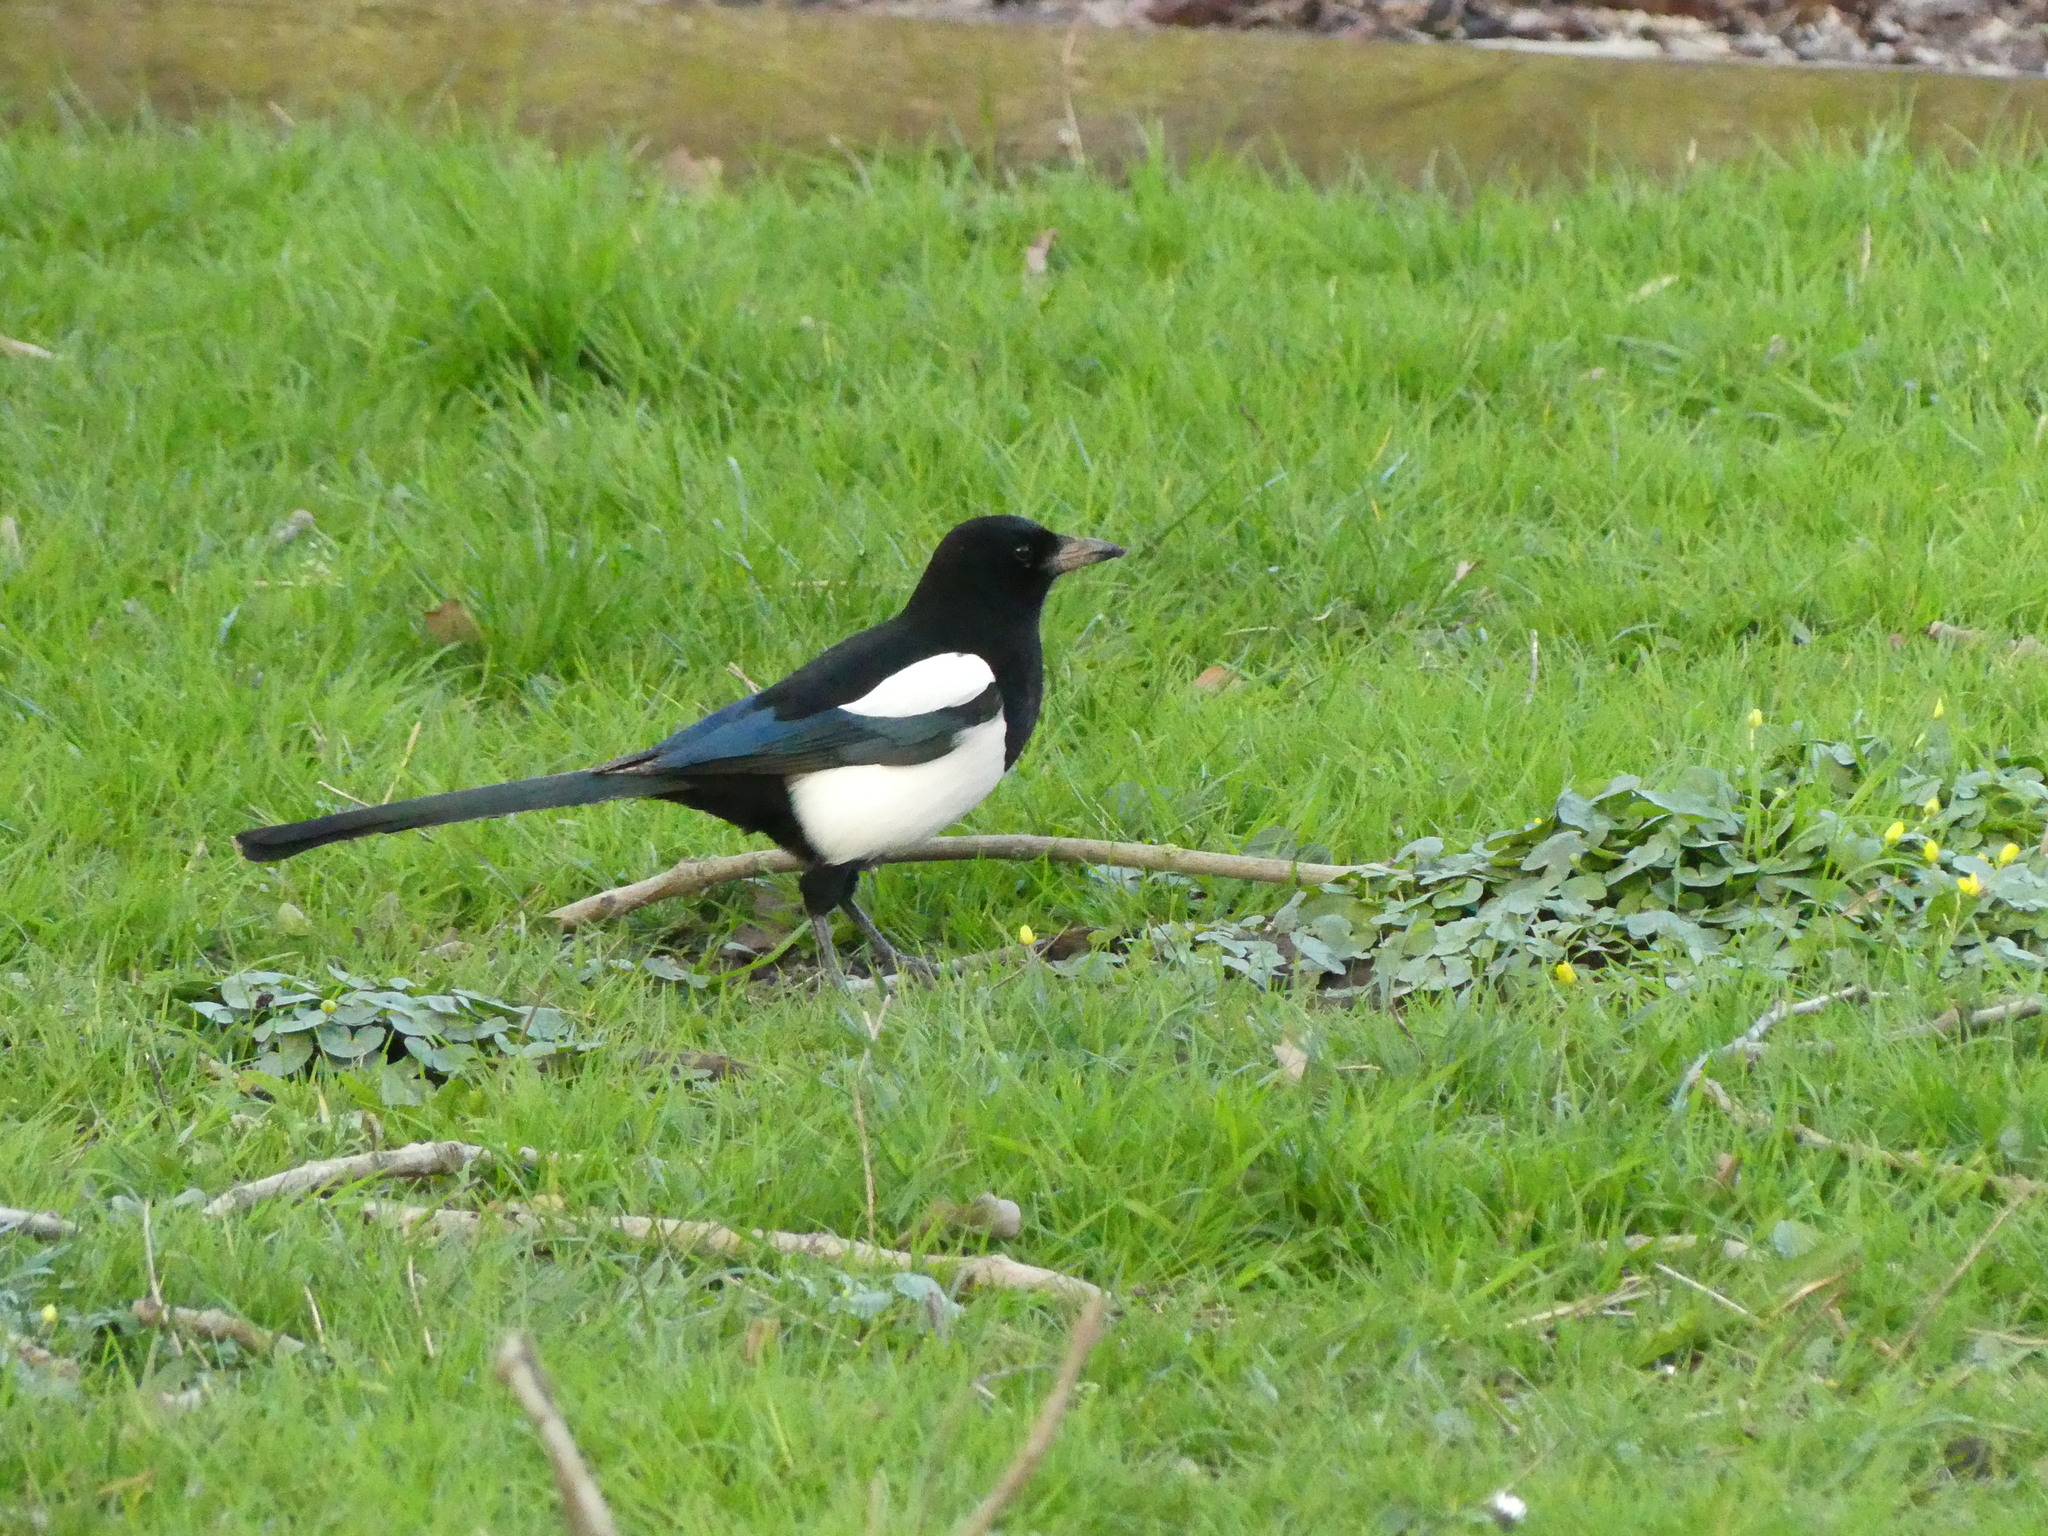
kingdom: Animalia
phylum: Chordata
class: Aves
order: Passeriformes
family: Corvidae
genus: Pica
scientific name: Pica pica
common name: Eurasian magpie
